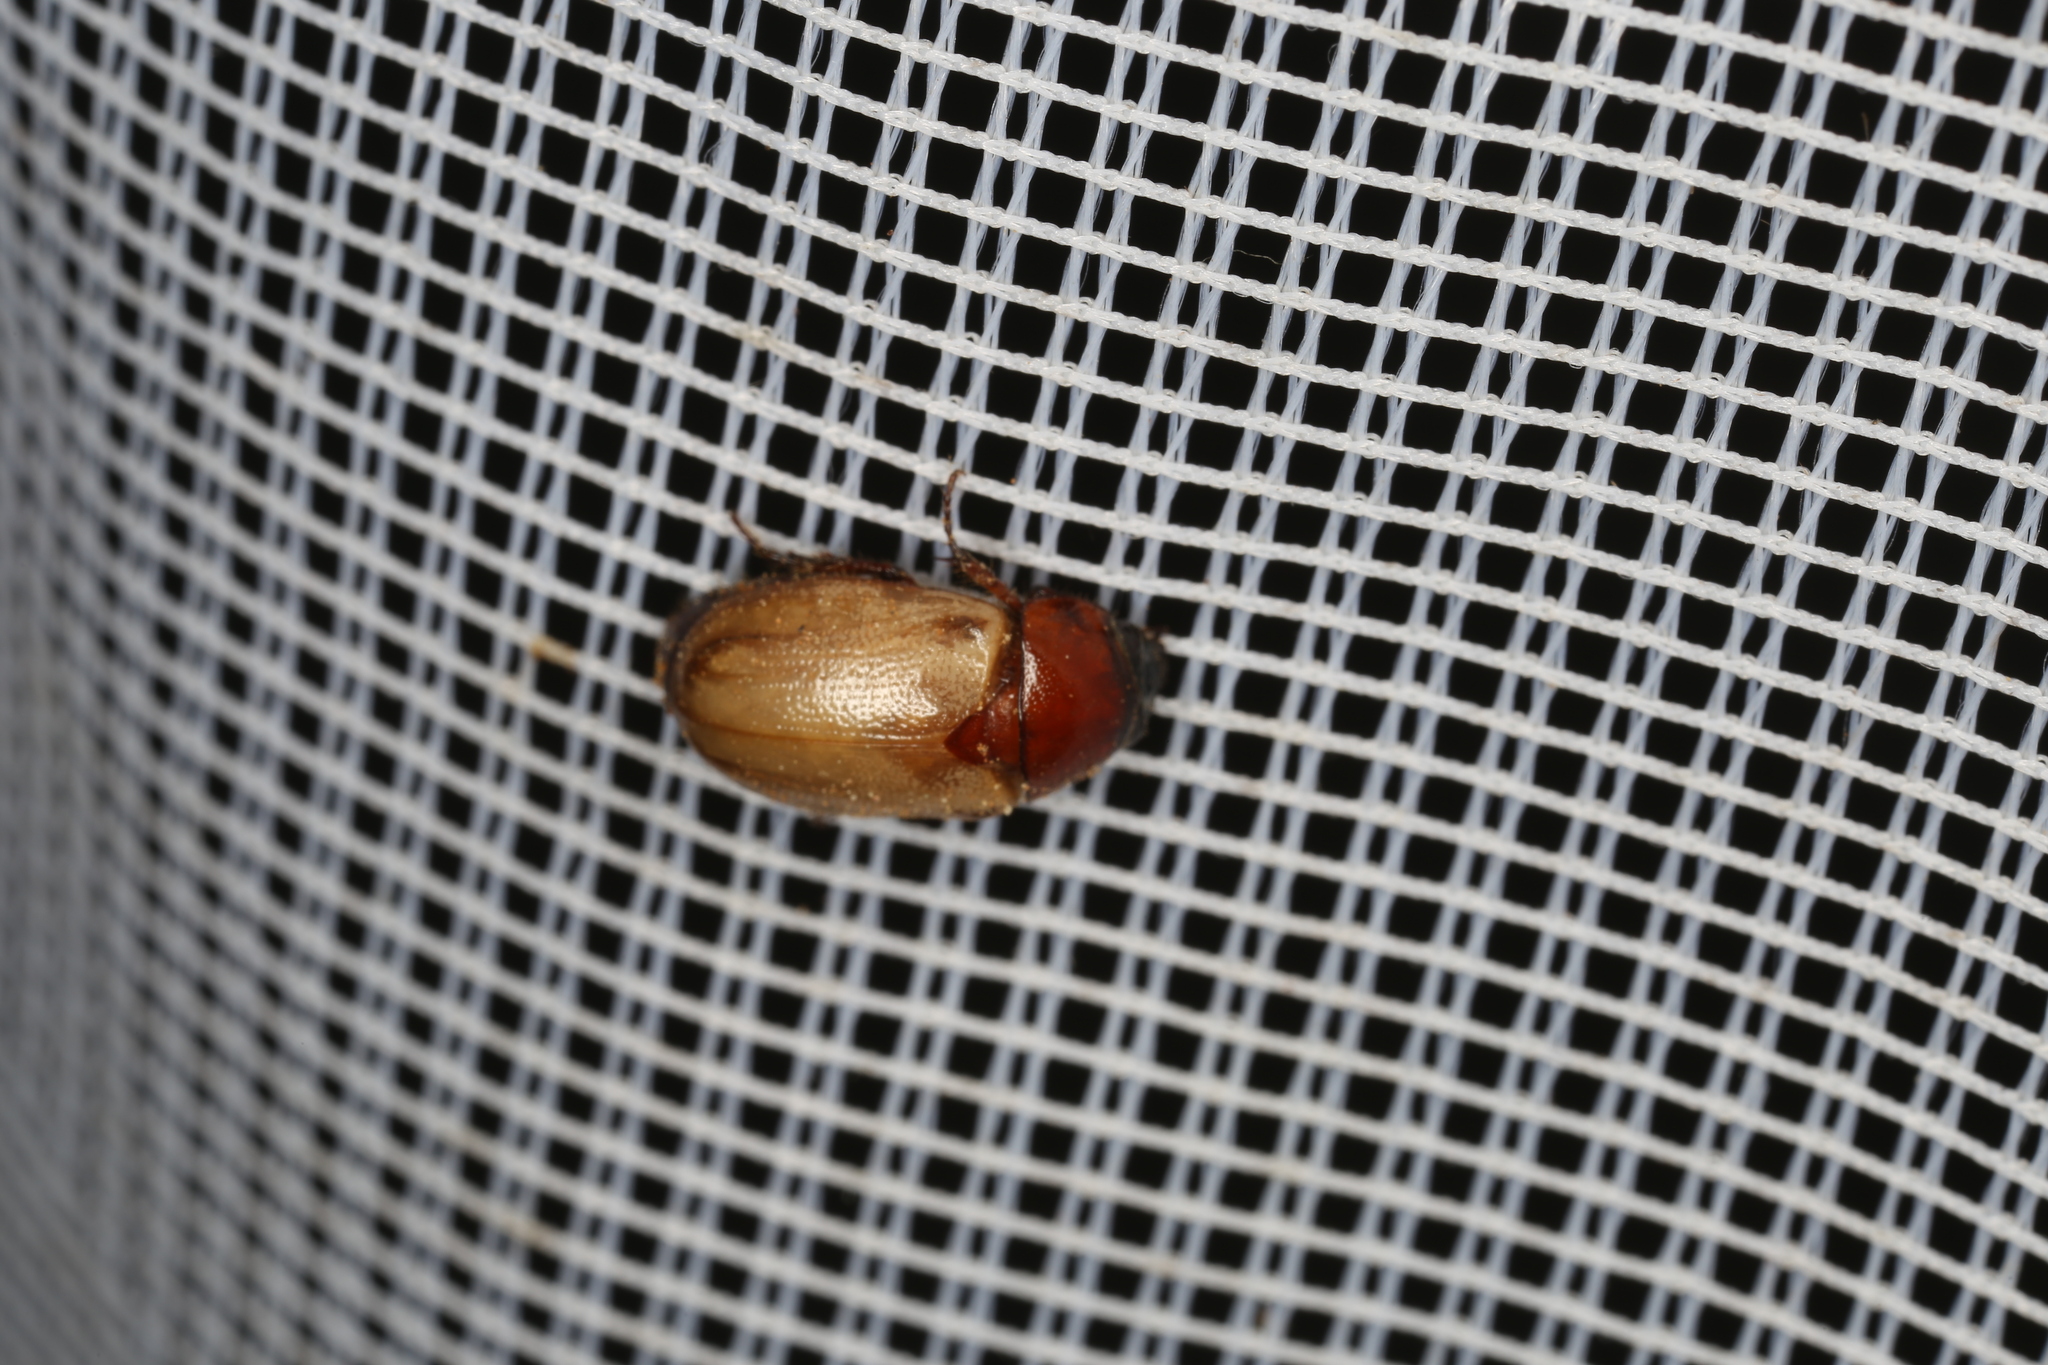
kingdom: Animalia
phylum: Arthropoda
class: Insecta
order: Coleoptera
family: Scarabaeidae
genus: Cyclocephala
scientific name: Cyclocephala melanocephala
